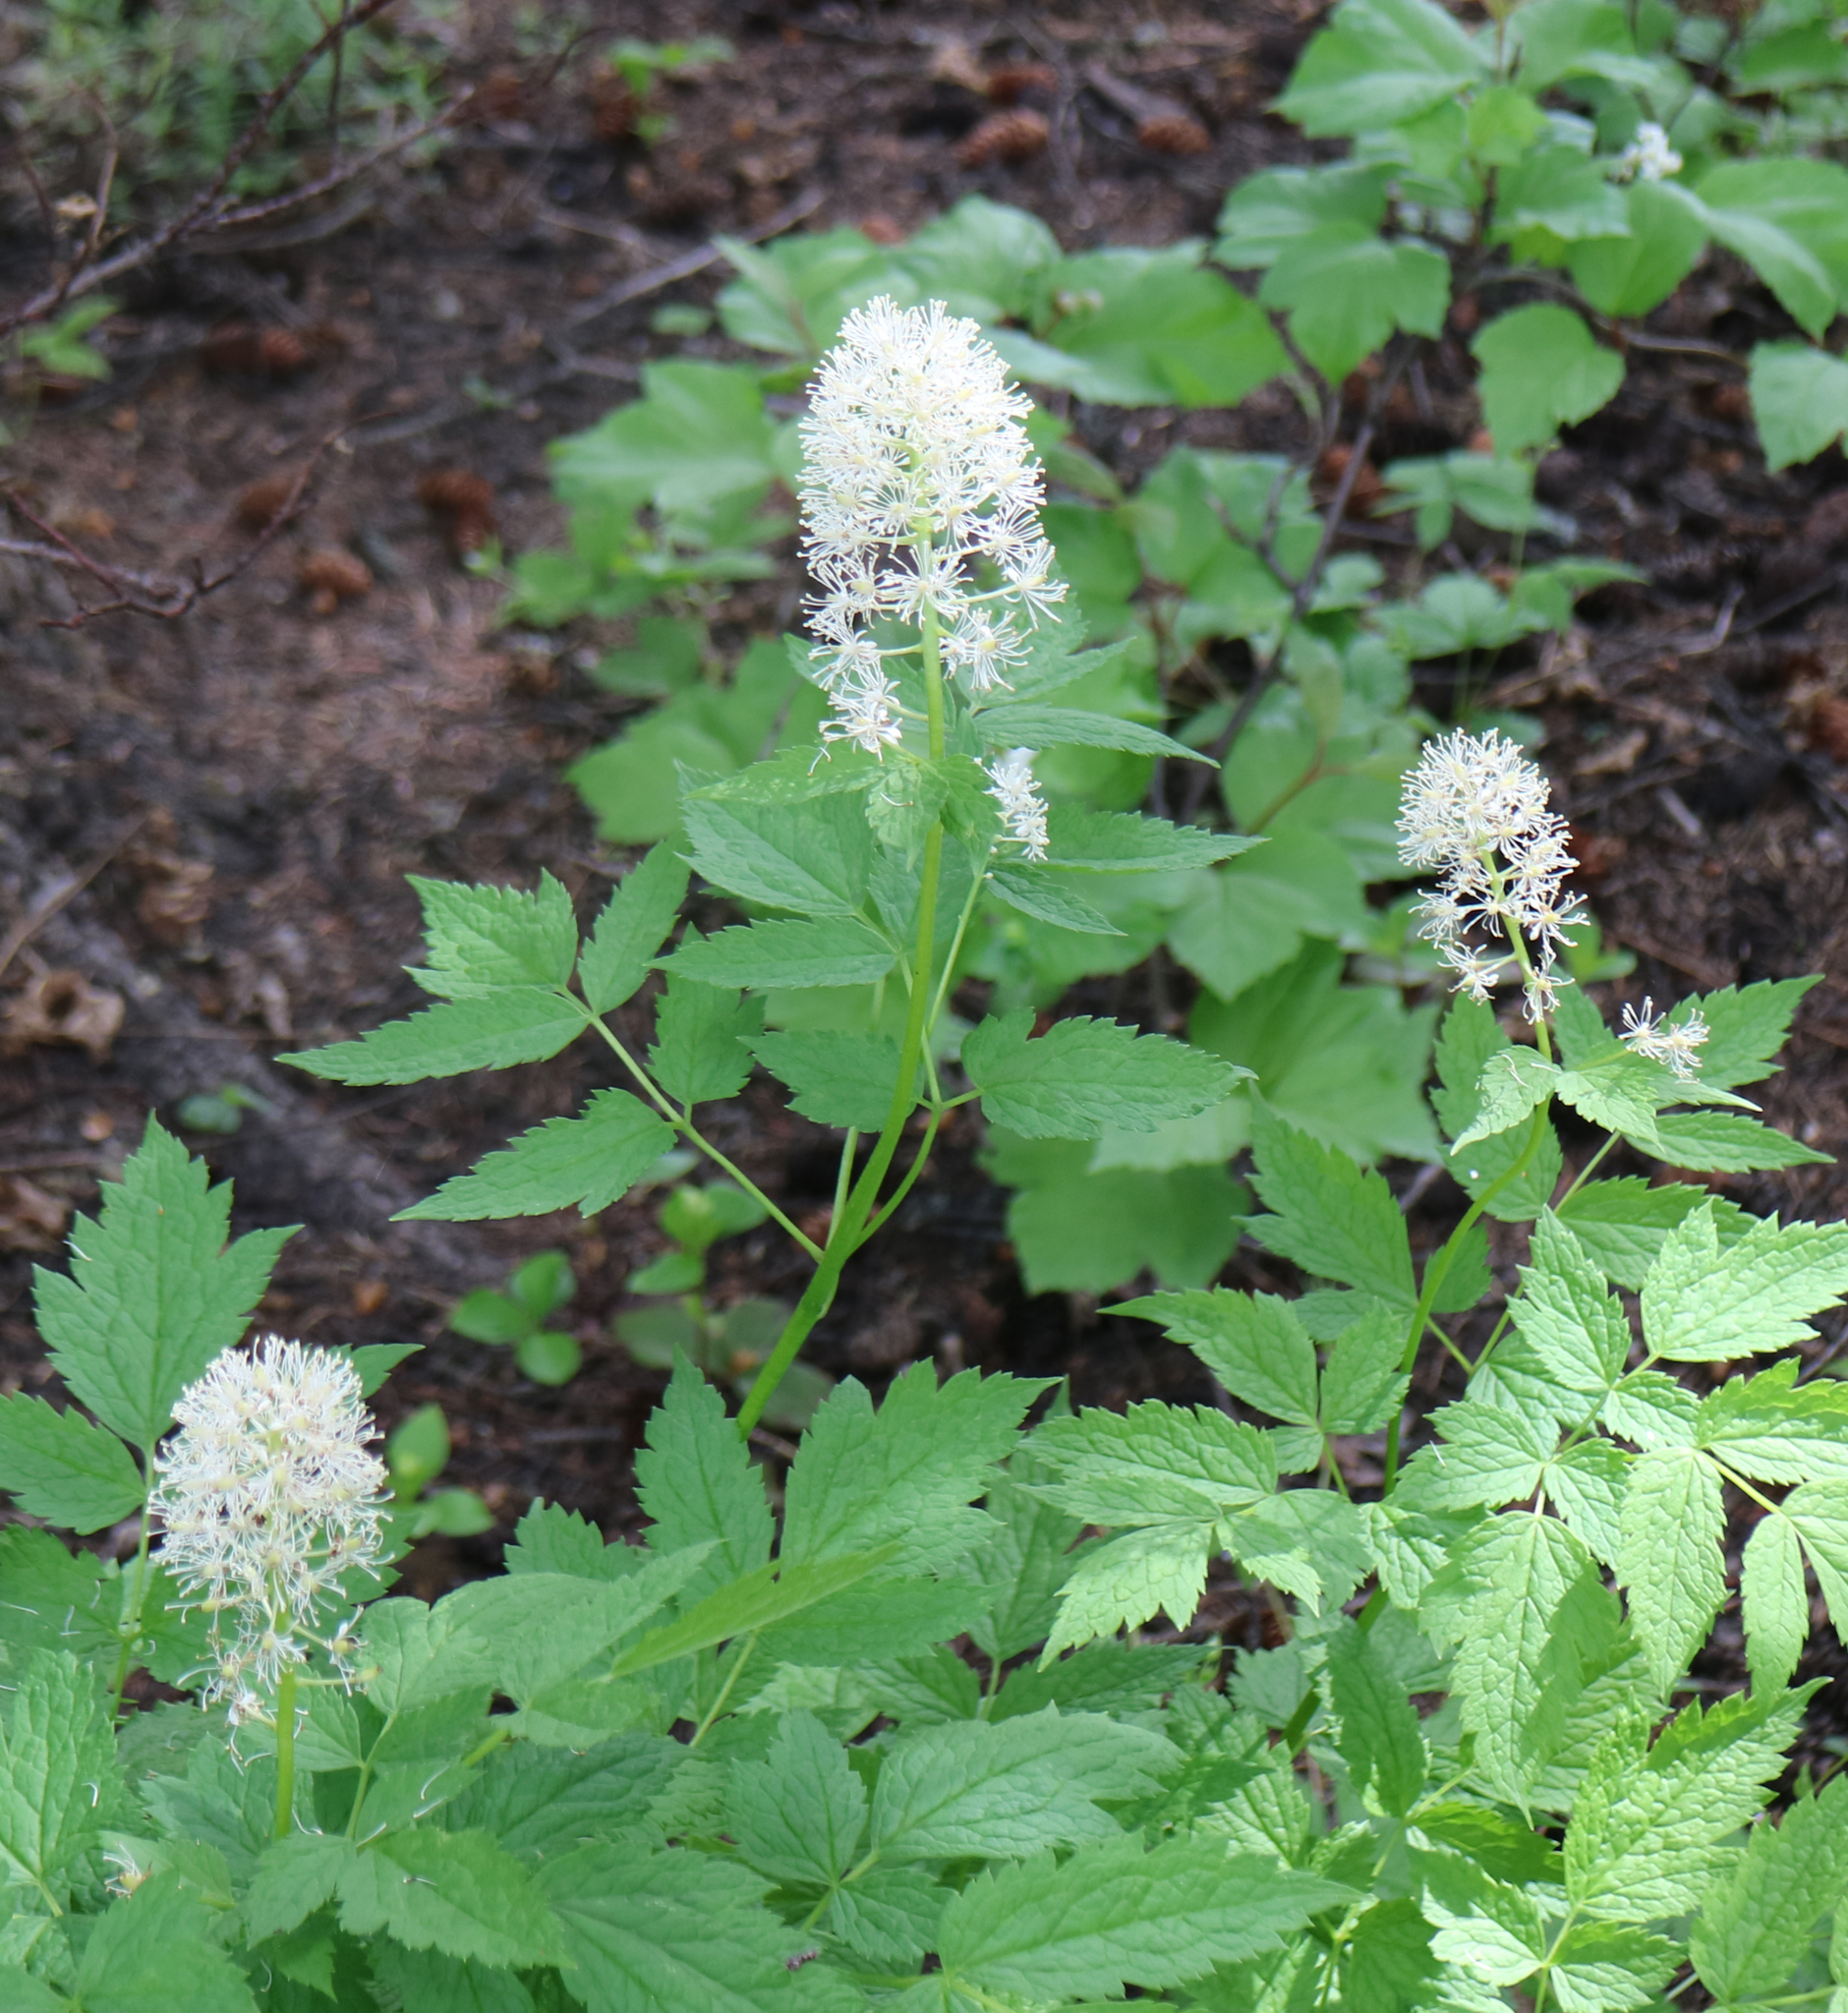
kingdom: Plantae
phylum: Tracheophyta
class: Magnoliopsida
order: Ranunculales
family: Ranunculaceae
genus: Actaea
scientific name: Actaea rubra
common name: Red baneberry
